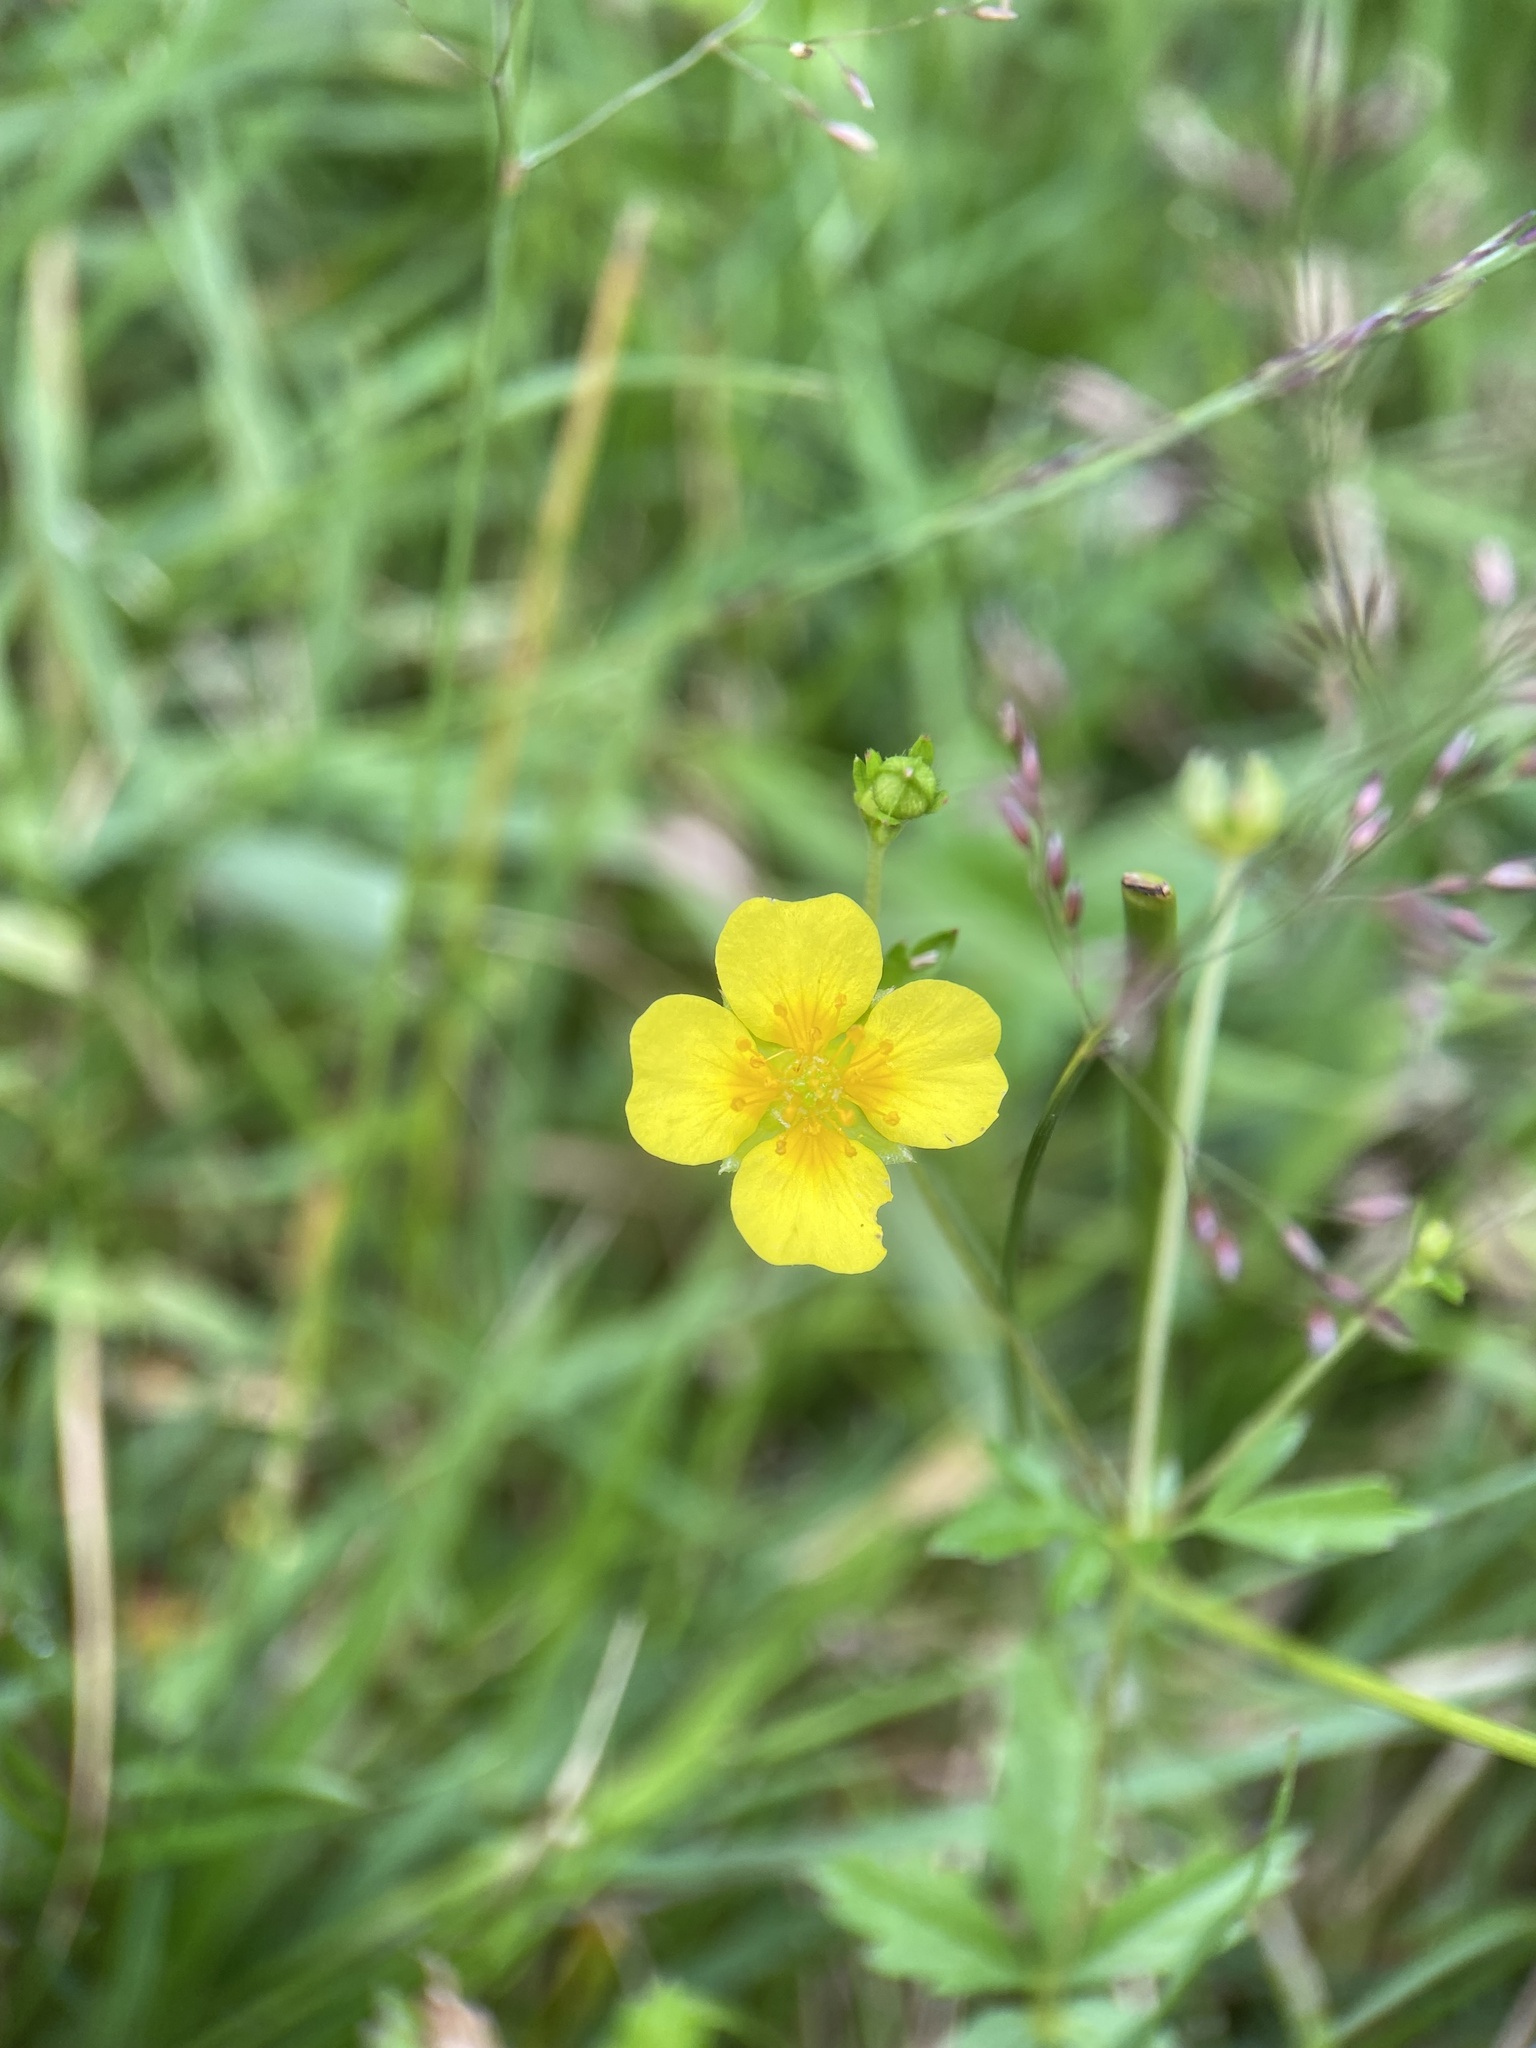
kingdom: Plantae
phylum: Tracheophyta
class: Magnoliopsida
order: Rosales
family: Rosaceae
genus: Potentilla
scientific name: Potentilla erecta
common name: Tormentil
